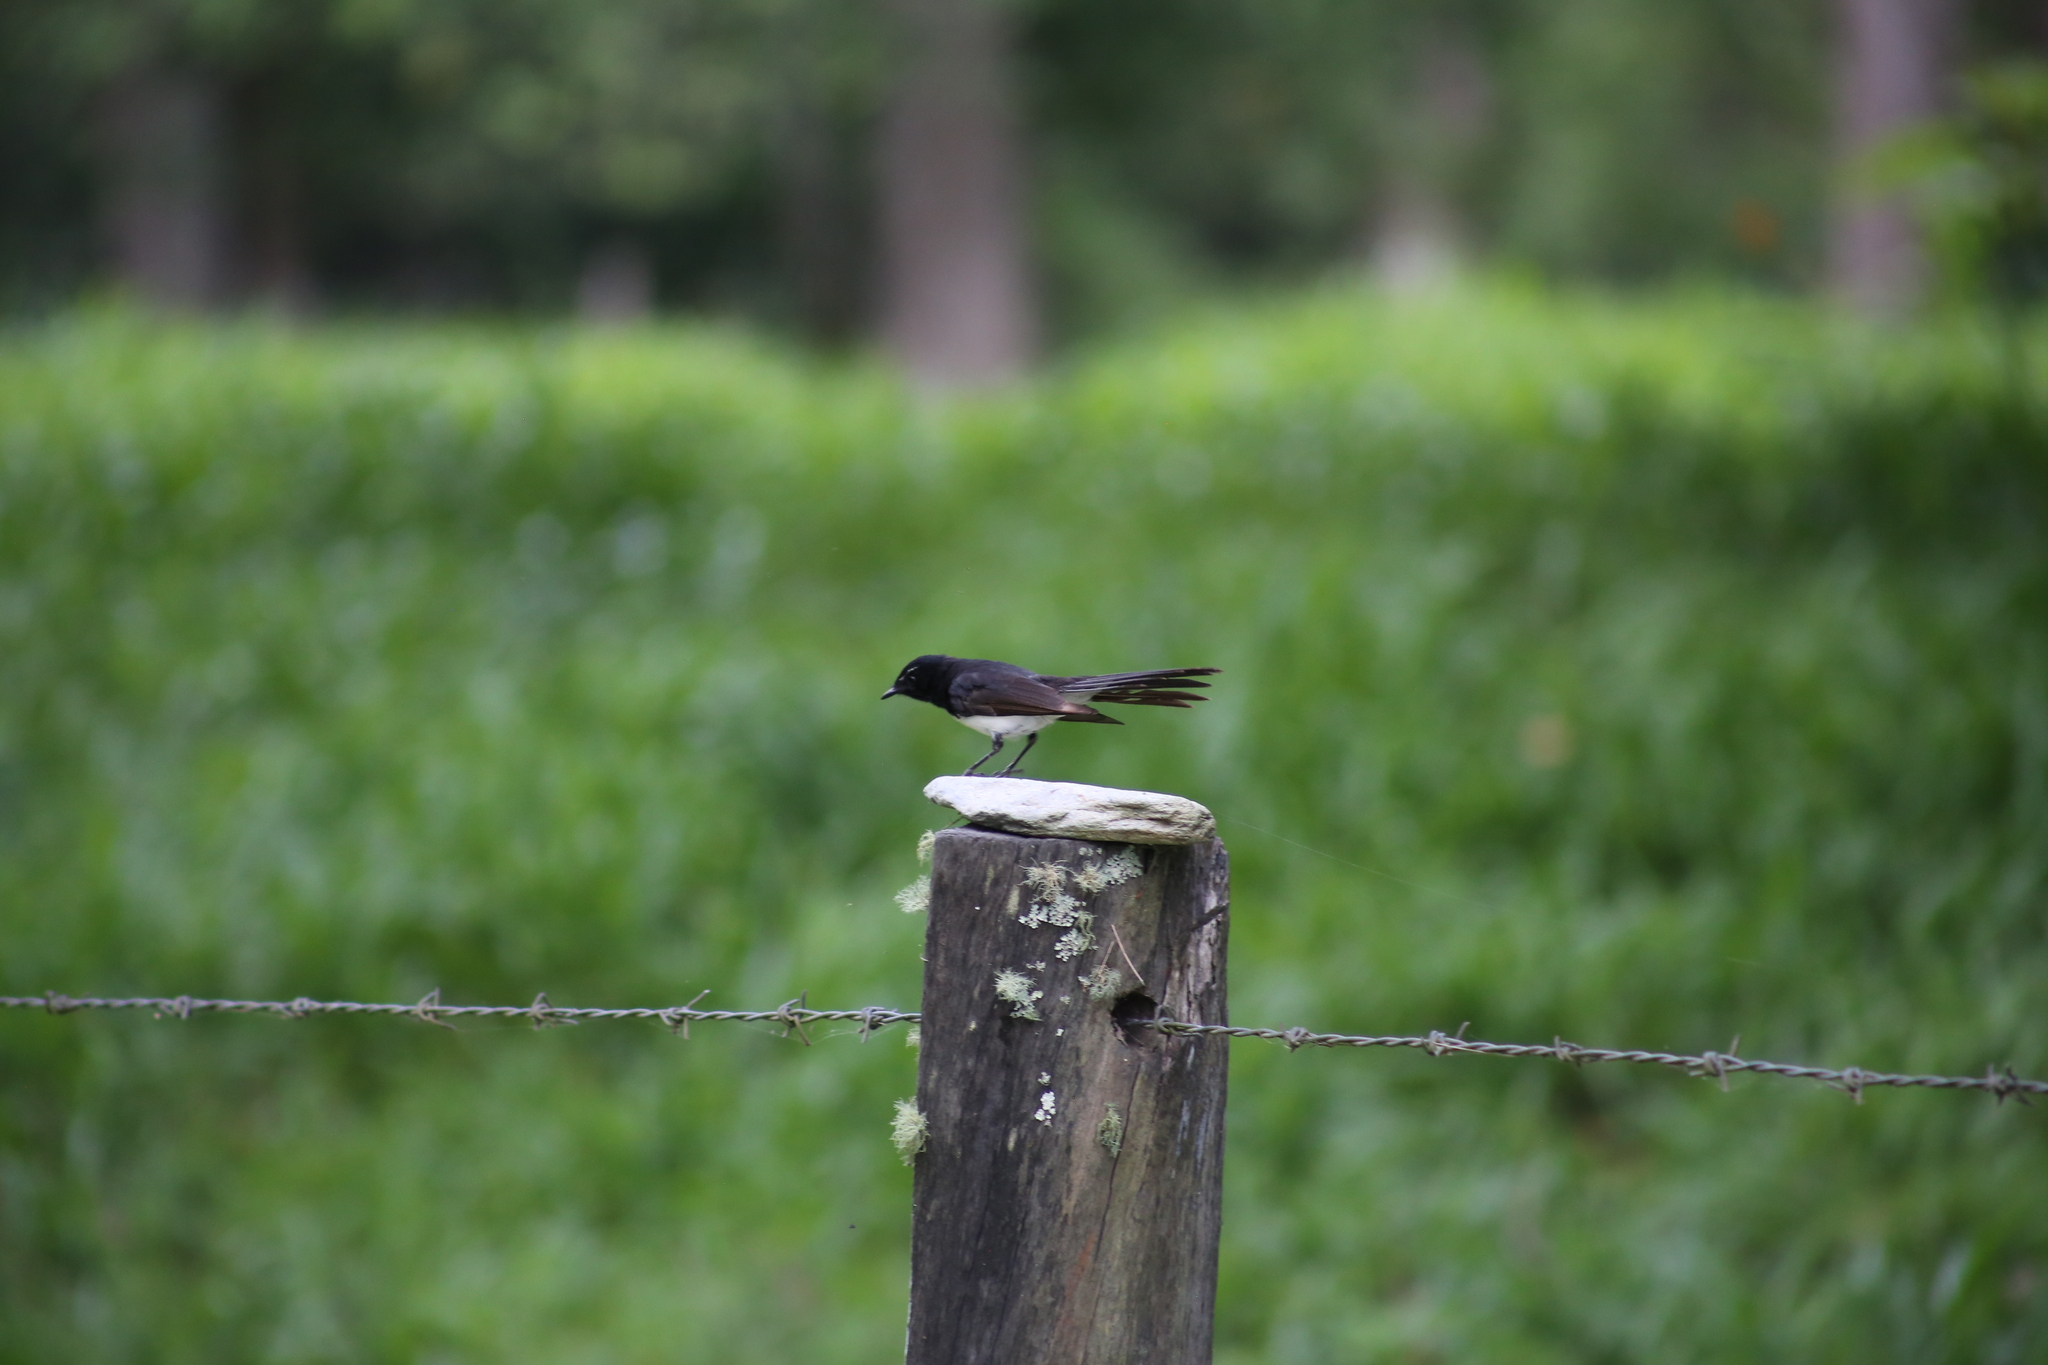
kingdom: Animalia
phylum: Chordata
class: Aves
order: Passeriformes
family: Rhipiduridae
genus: Rhipidura
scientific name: Rhipidura leucophrys
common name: Willie wagtail
